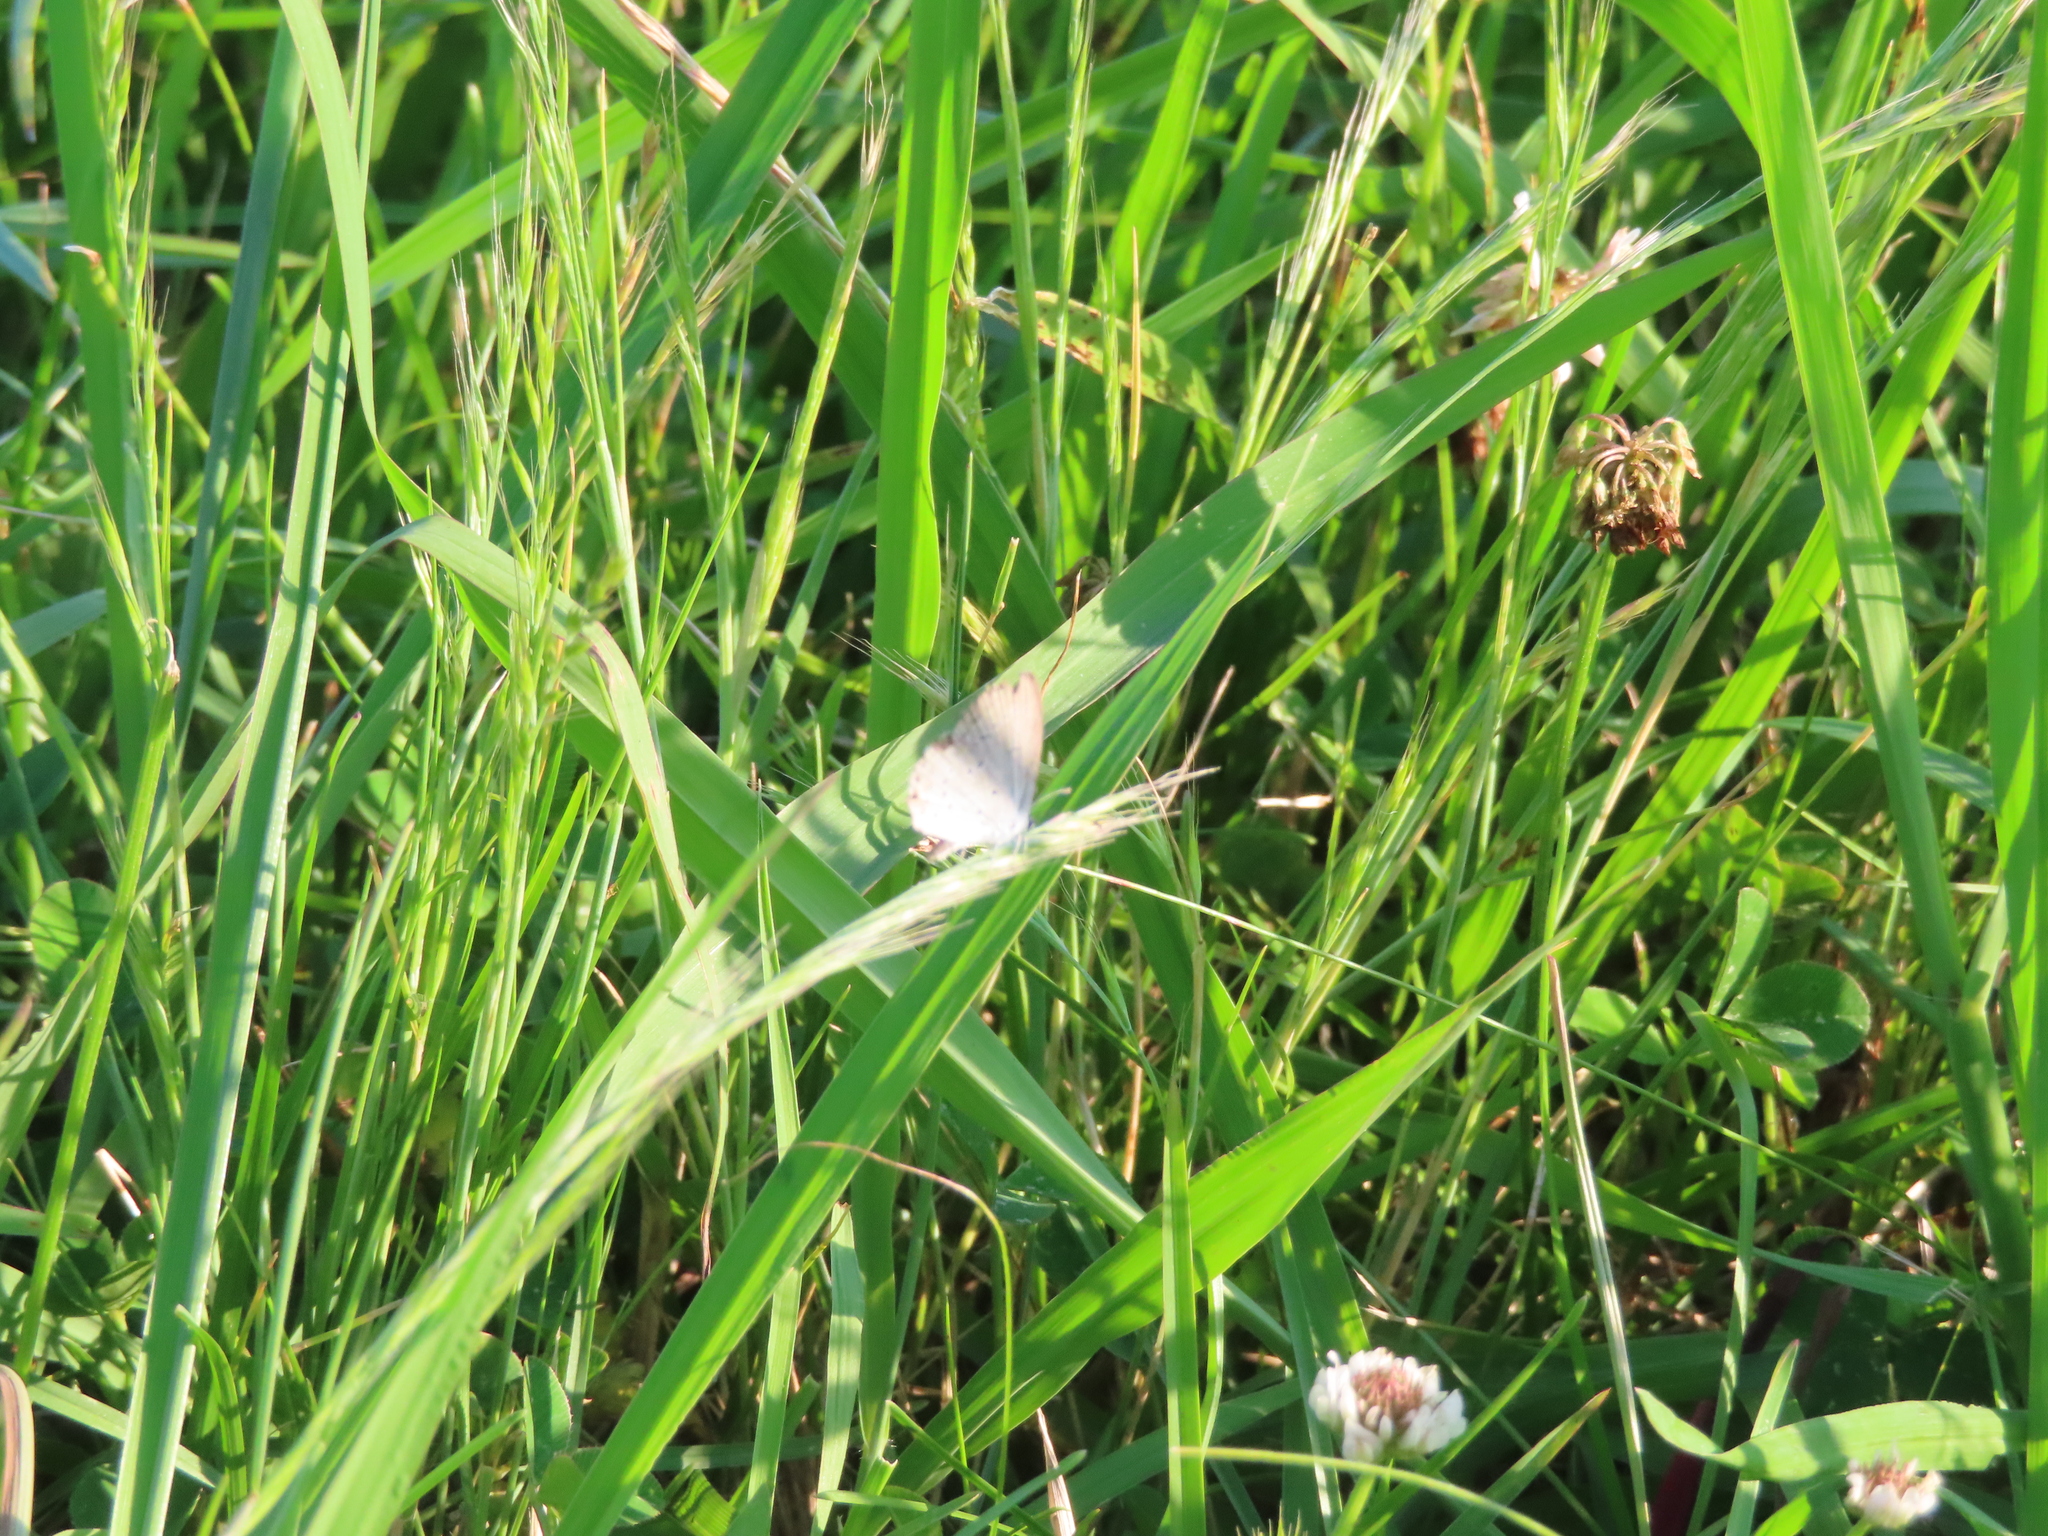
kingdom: Animalia
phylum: Arthropoda
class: Insecta
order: Lepidoptera
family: Lycaenidae
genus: Elkalyce
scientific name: Elkalyce comyntas
